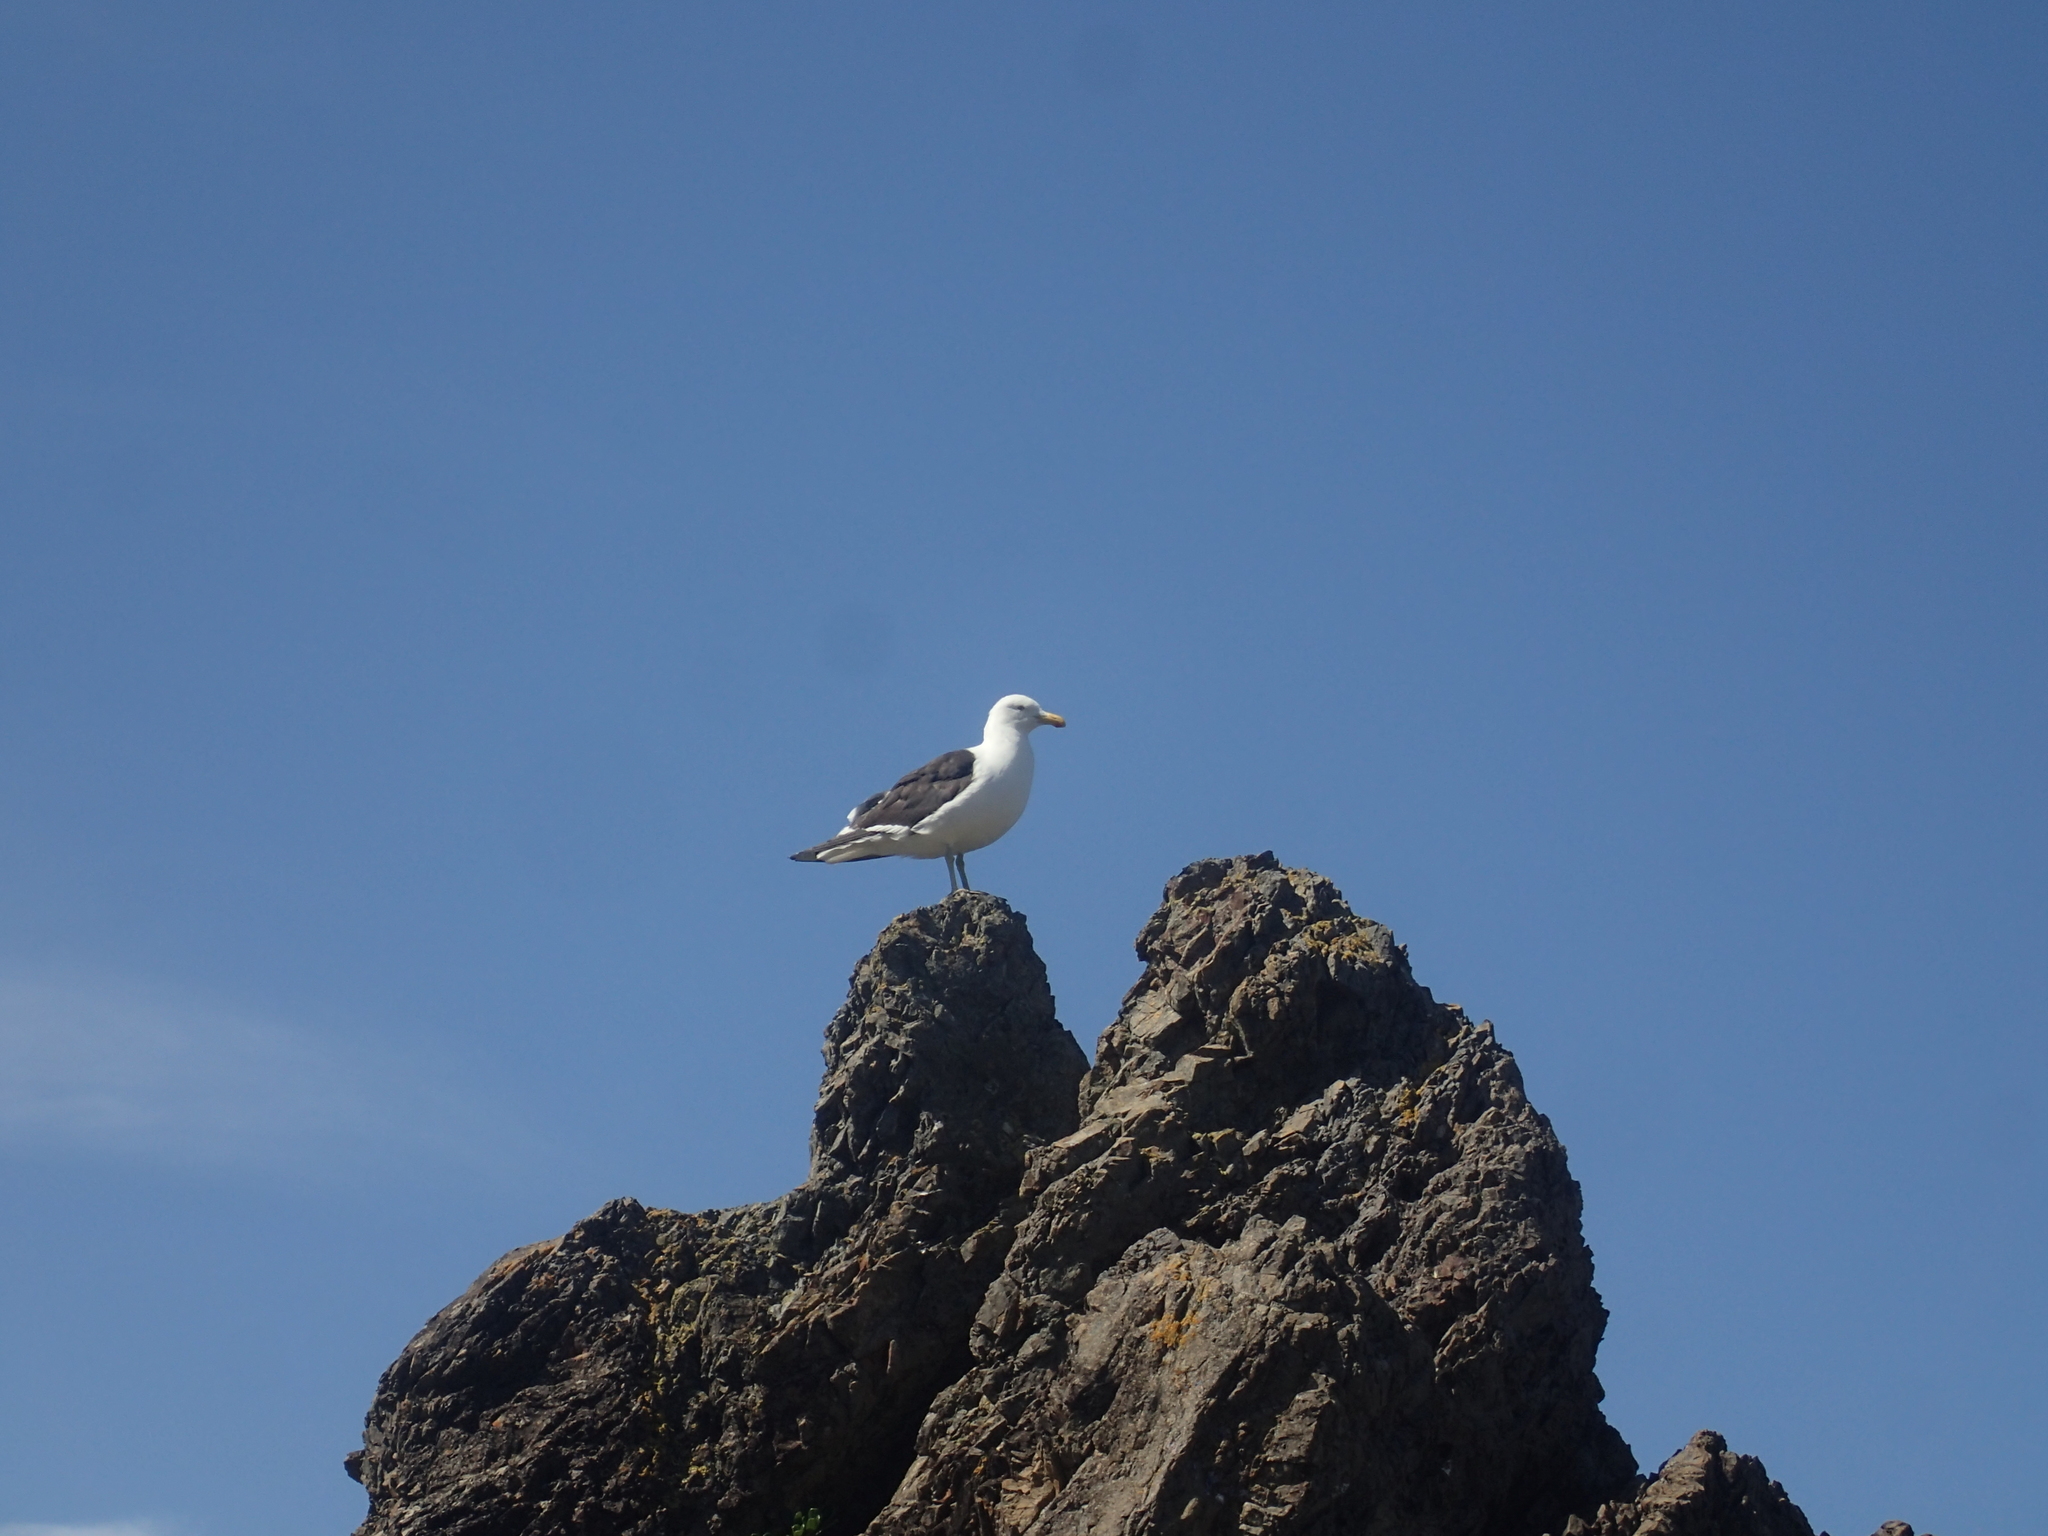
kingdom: Animalia
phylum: Chordata
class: Aves
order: Charadriiformes
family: Laridae
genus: Larus
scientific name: Larus dominicanus
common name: Kelp gull
